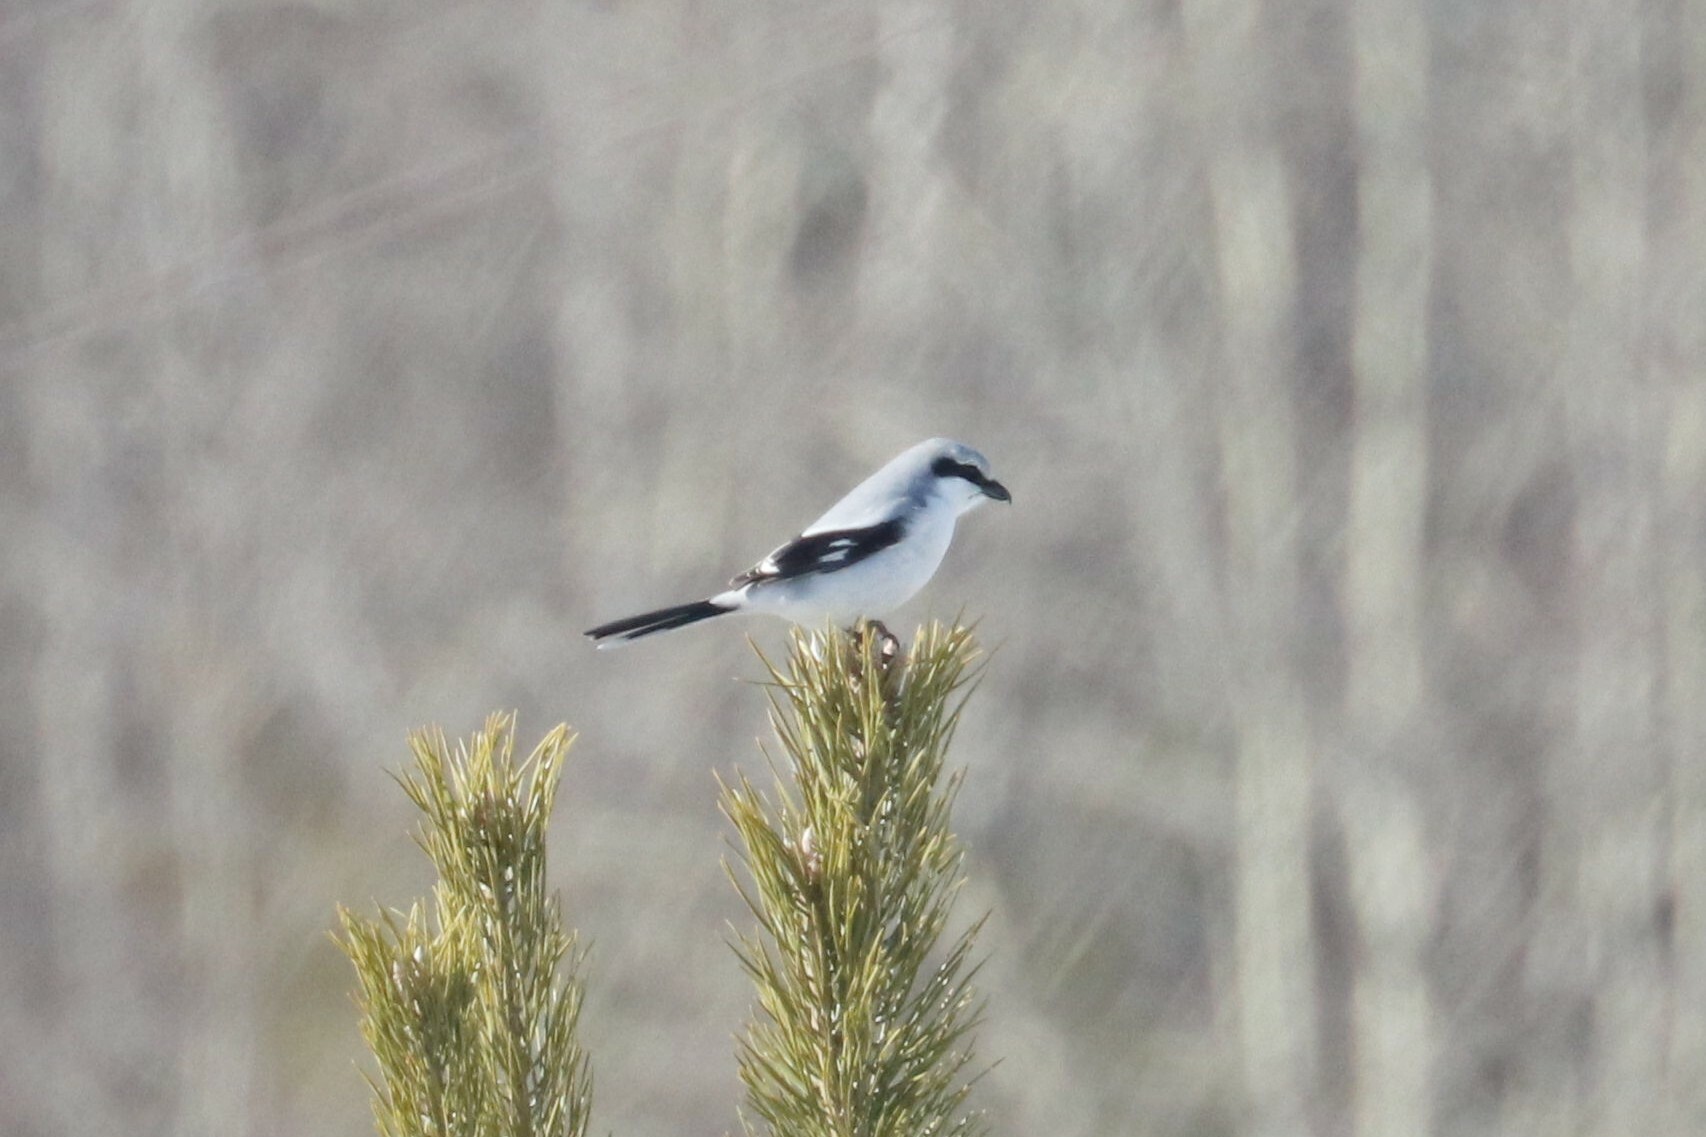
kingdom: Animalia
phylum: Chordata
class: Aves
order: Passeriformes
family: Laniidae
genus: Lanius
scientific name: Lanius excubitor
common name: Great grey shrike
